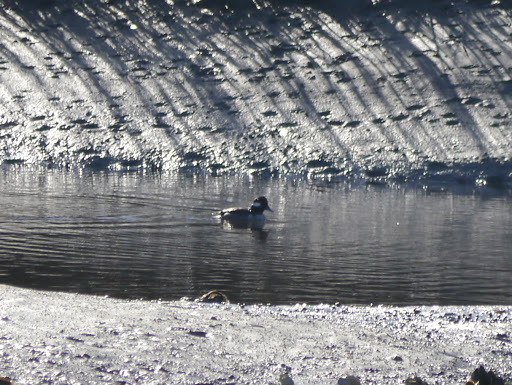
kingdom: Animalia
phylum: Chordata
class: Aves
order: Anseriformes
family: Anatidae
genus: Bucephala
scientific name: Bucephala albeola
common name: Bufflehead
